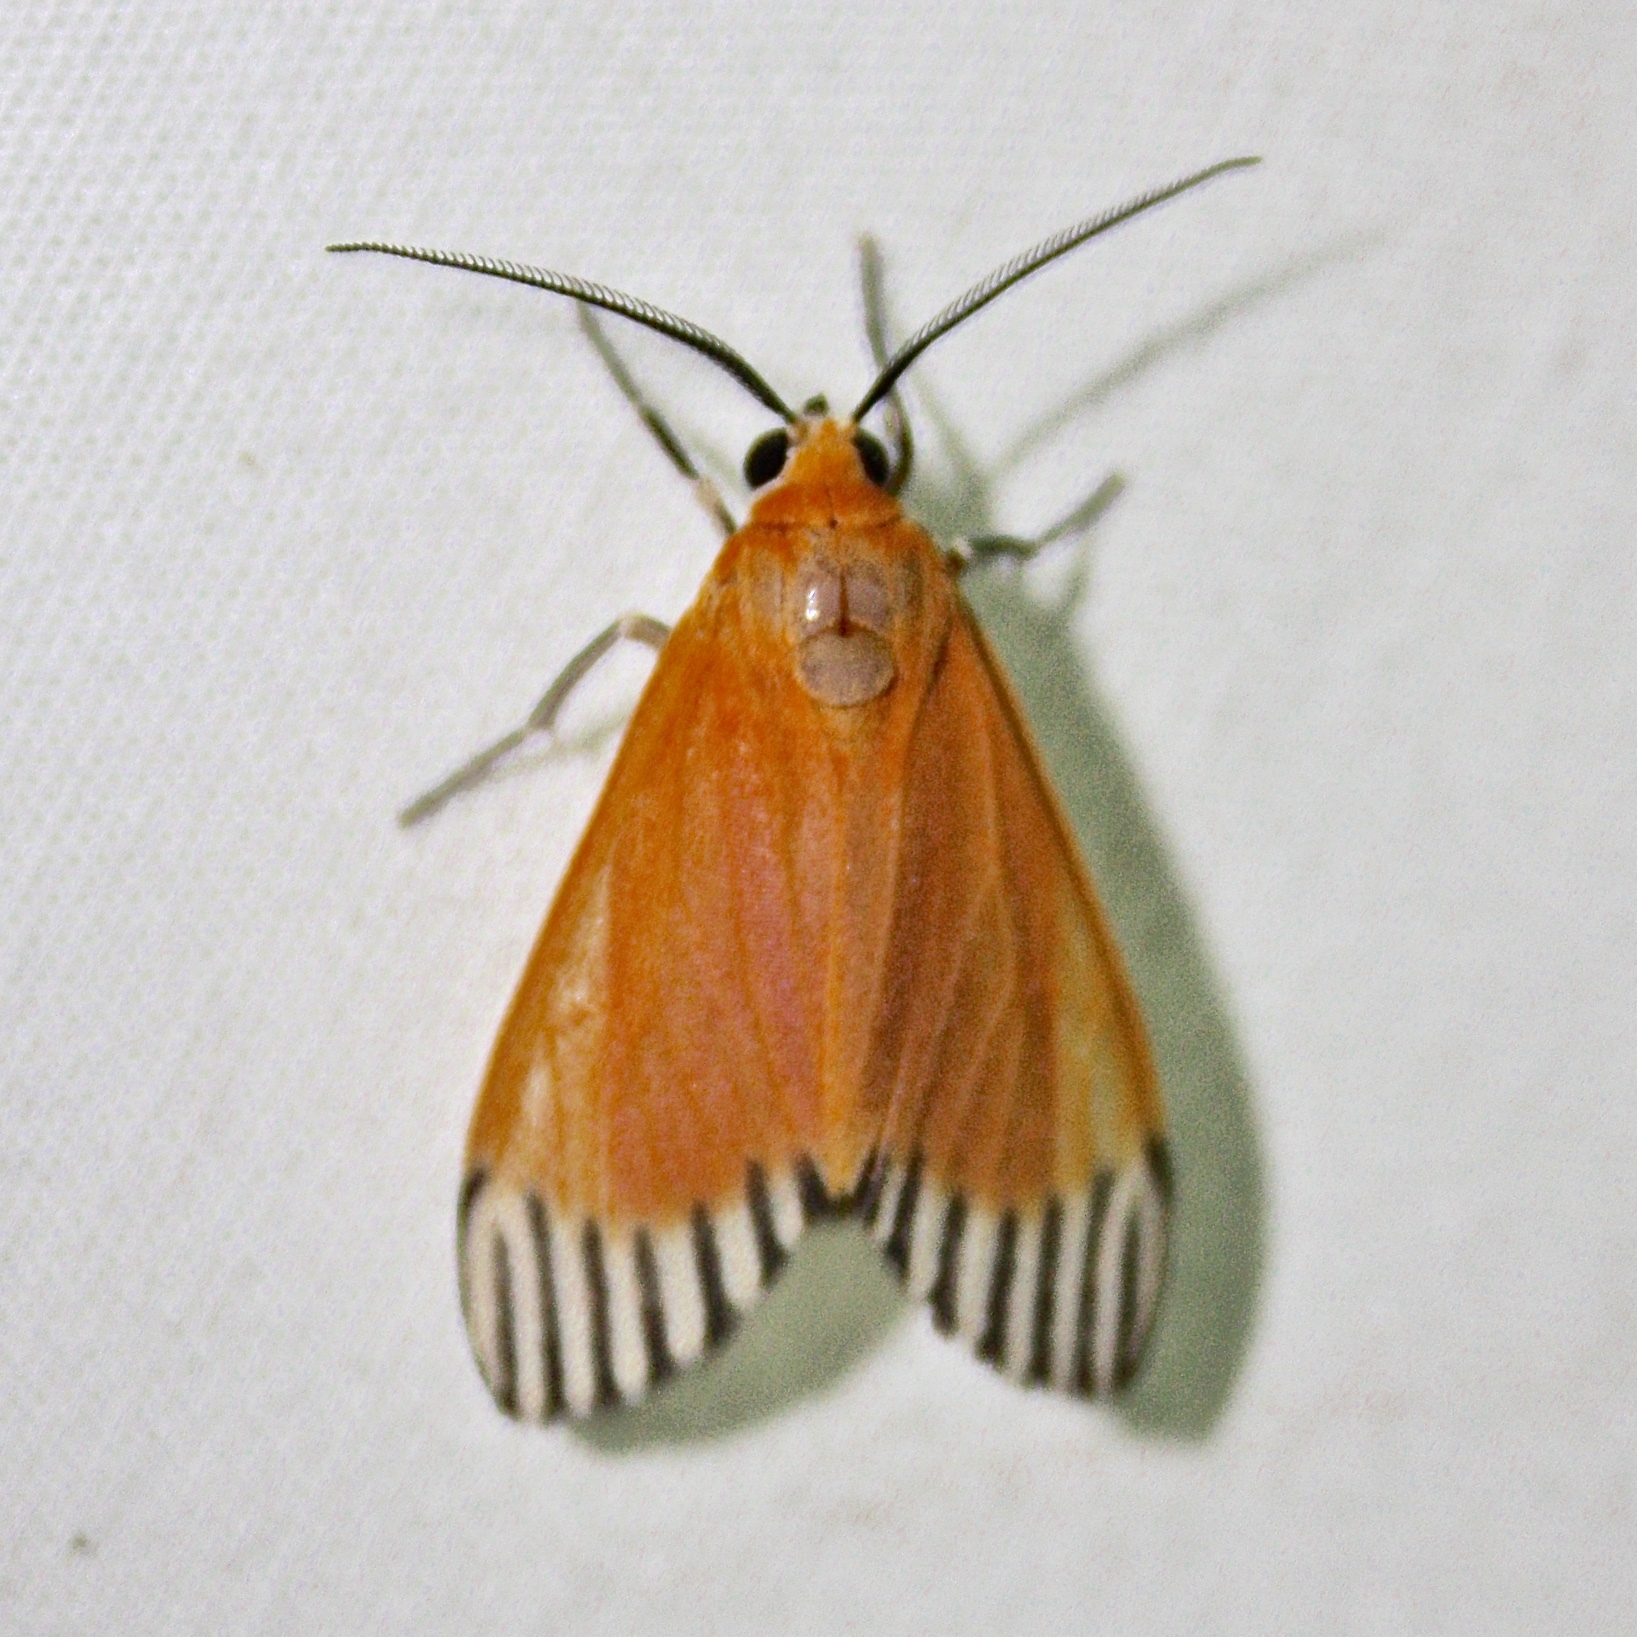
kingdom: Animalia
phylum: Arthropoda
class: Insecta
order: Lepidoptera
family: Erebidae
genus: Uranophora
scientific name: Uranophora walkeri
